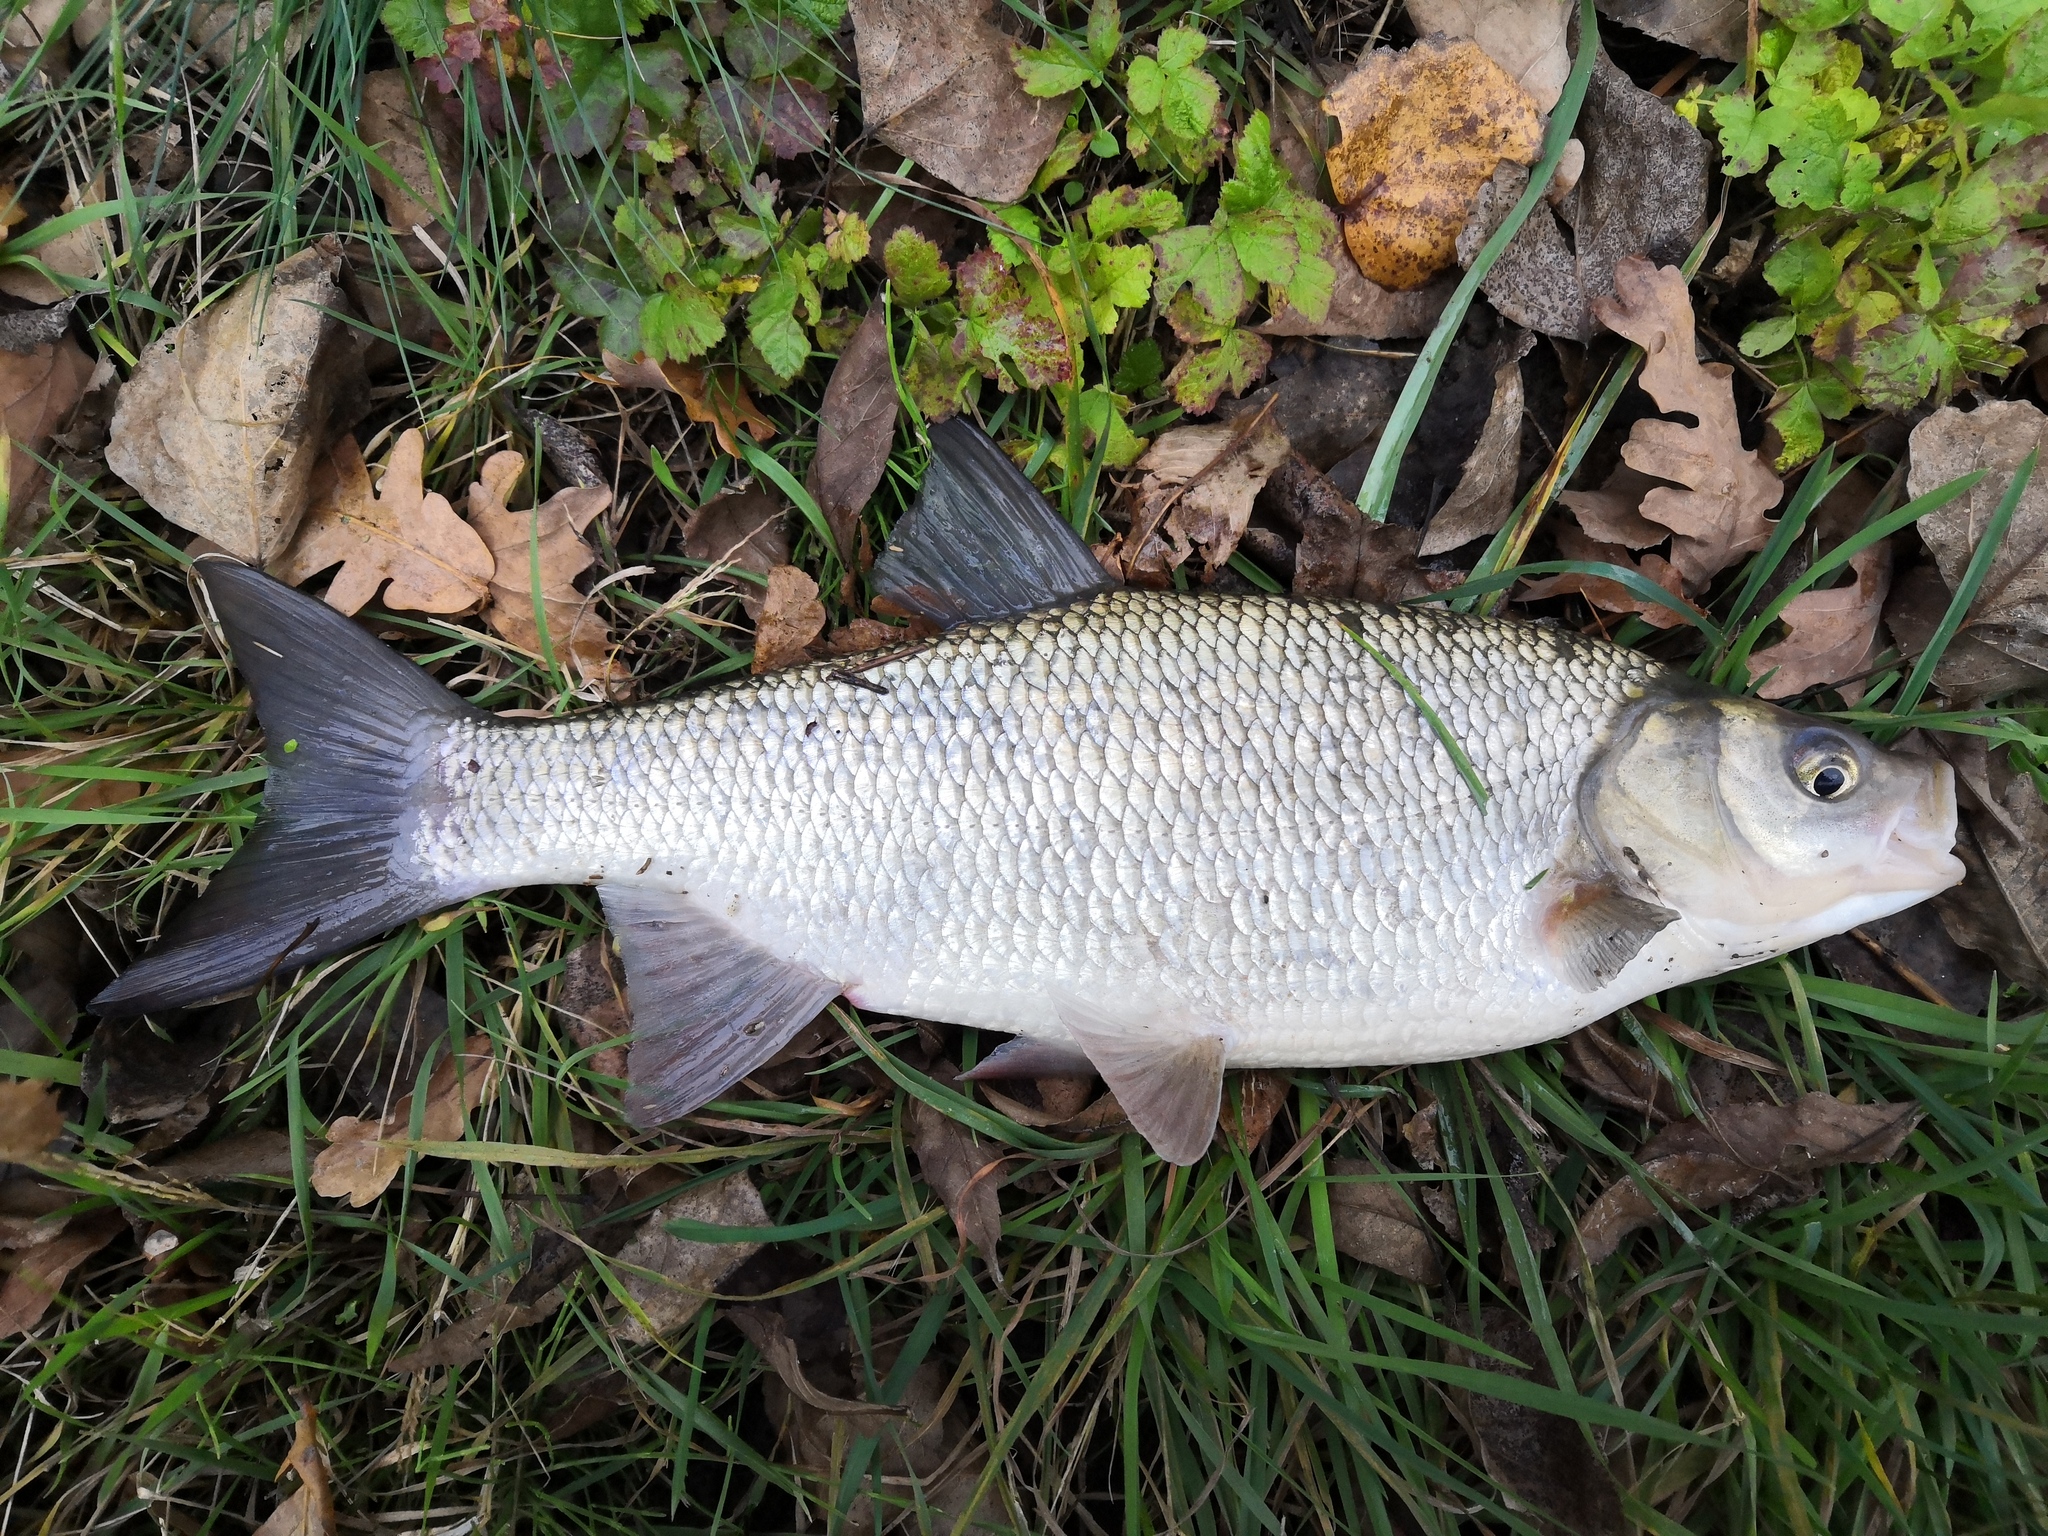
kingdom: Animalia
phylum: Chordata
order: Cypriniformes
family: Cyprinidae
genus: Leuciscus
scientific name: Leuciscus idus
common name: Ide
